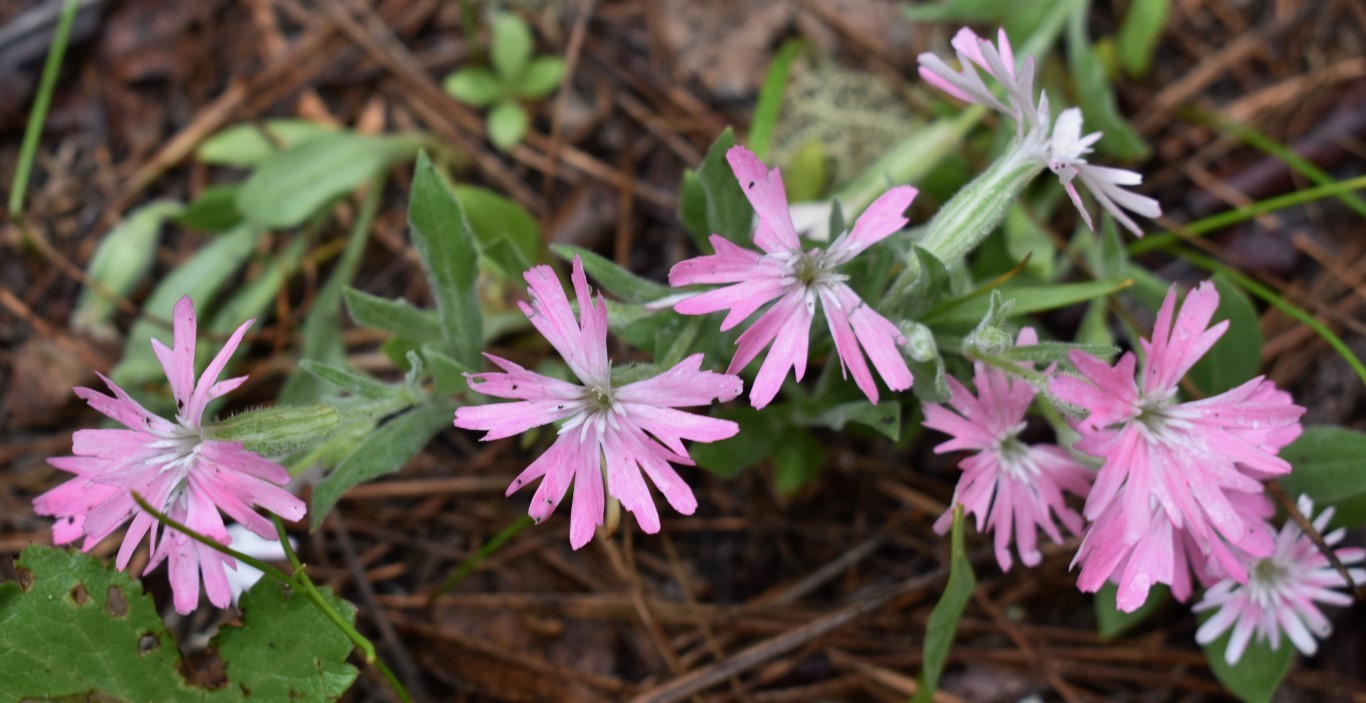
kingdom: Plantae
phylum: Tracheophyta
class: Magnoliopsida
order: Caryophyllales
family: Caryophyllaceae
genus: Silene
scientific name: Silene hookeri
